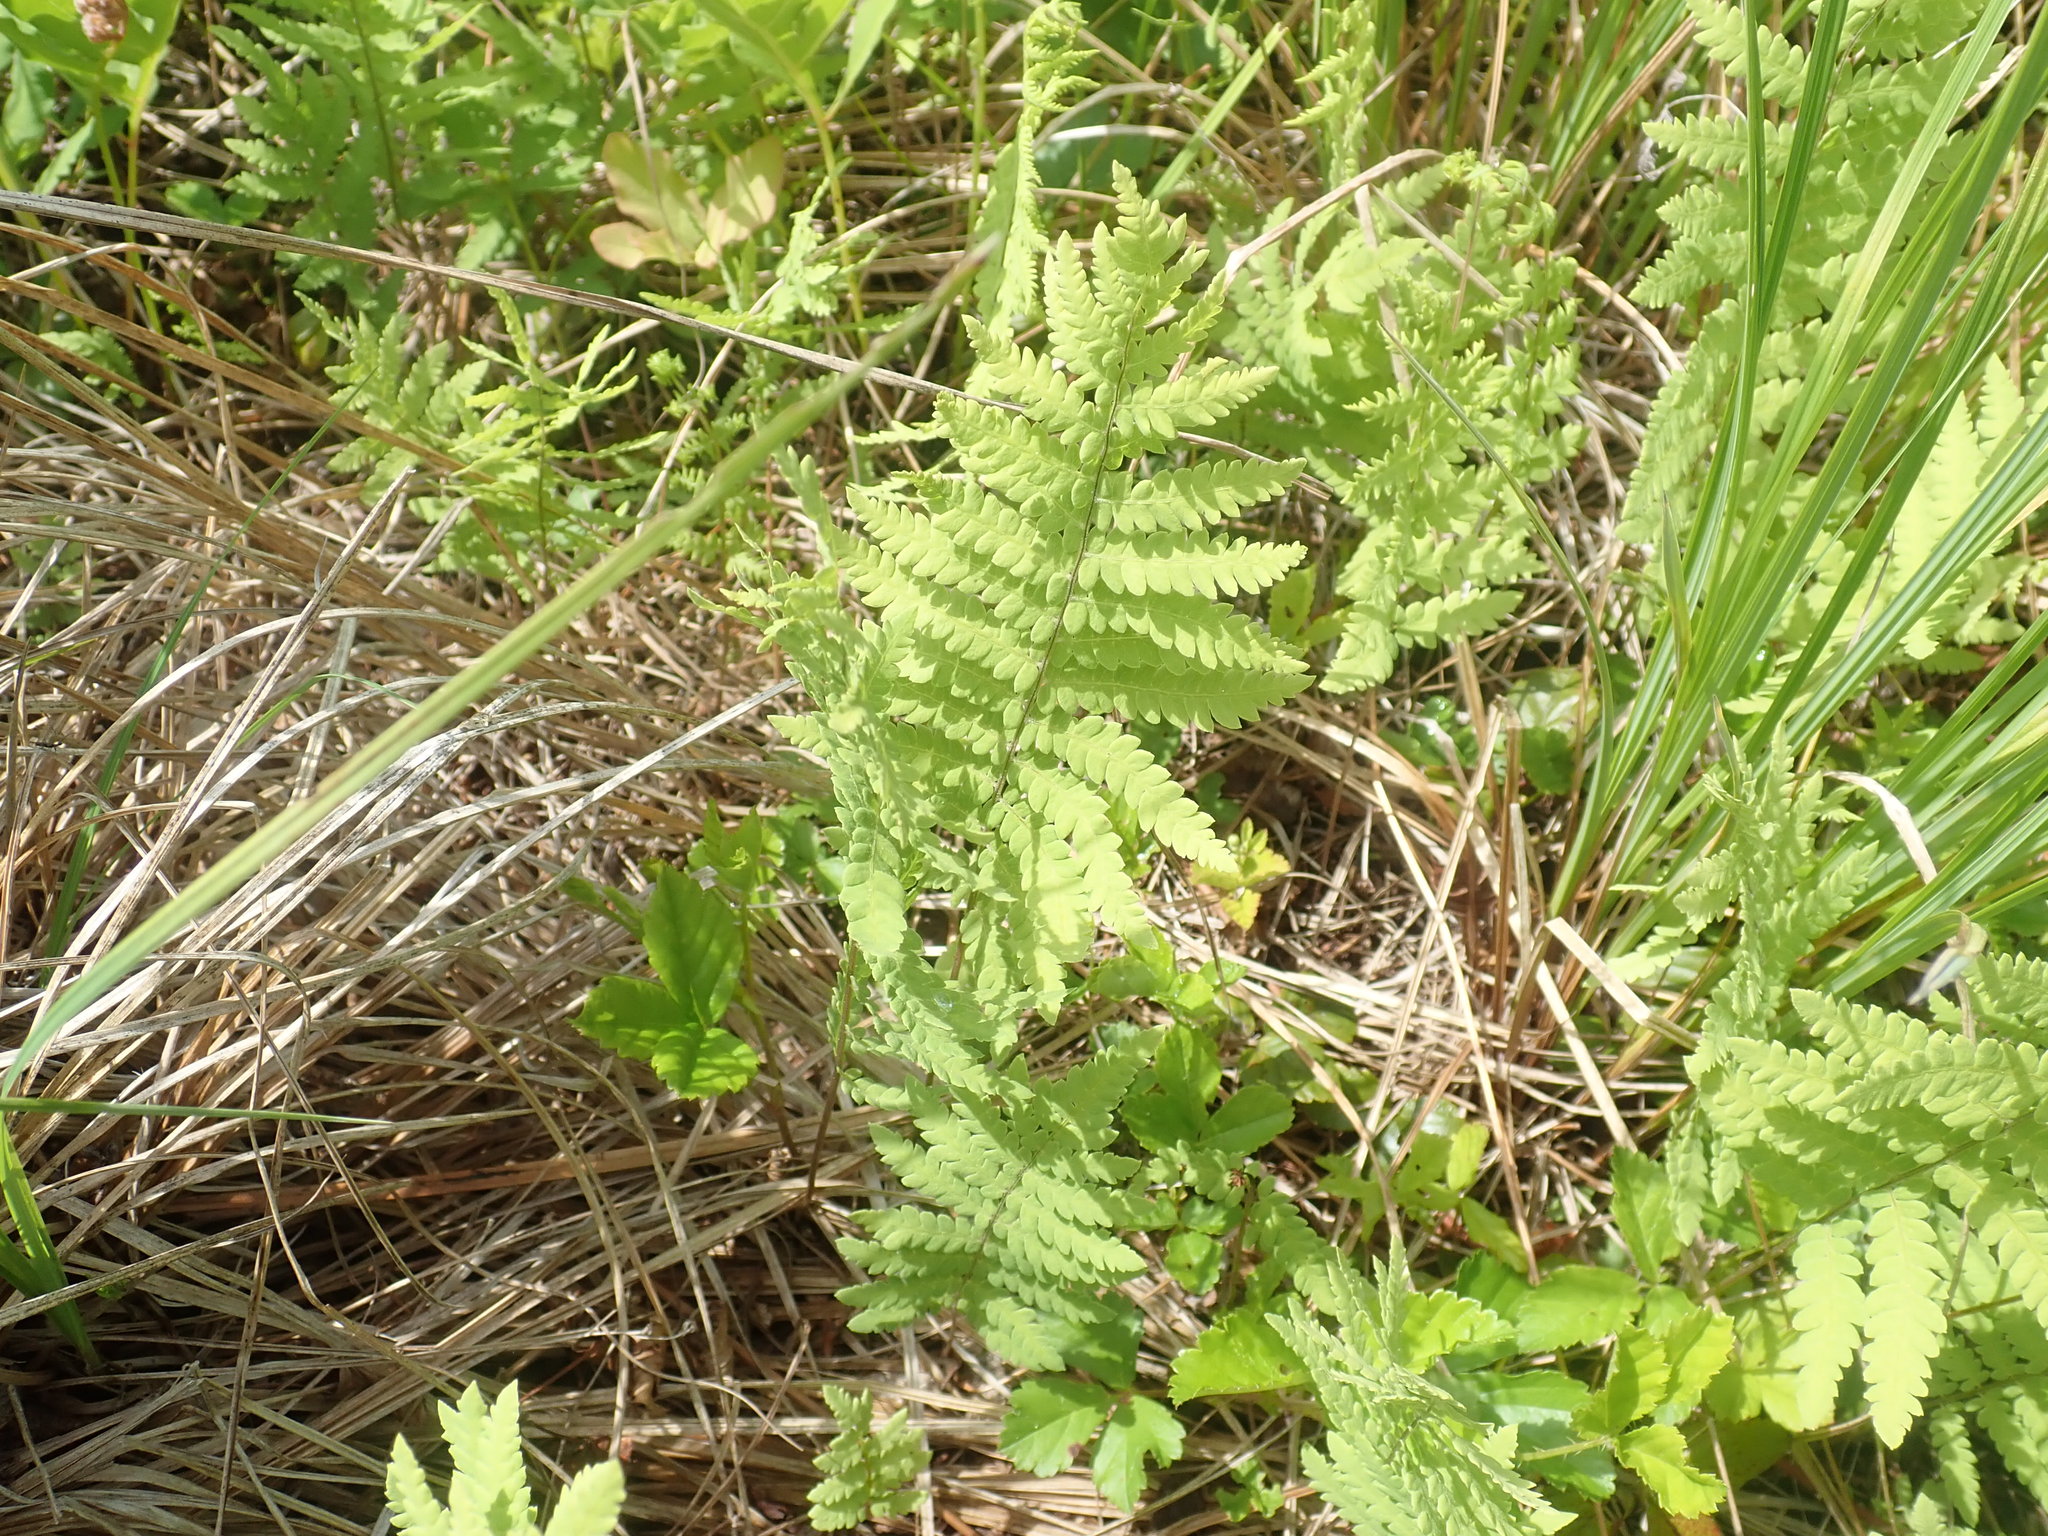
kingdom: Plantae
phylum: Tracheophyta
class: Polypodiopsida
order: Polypodiales
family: Thelypteridaceae
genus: Thelypteris
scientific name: Thelypteris palustris
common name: Marsh fern
